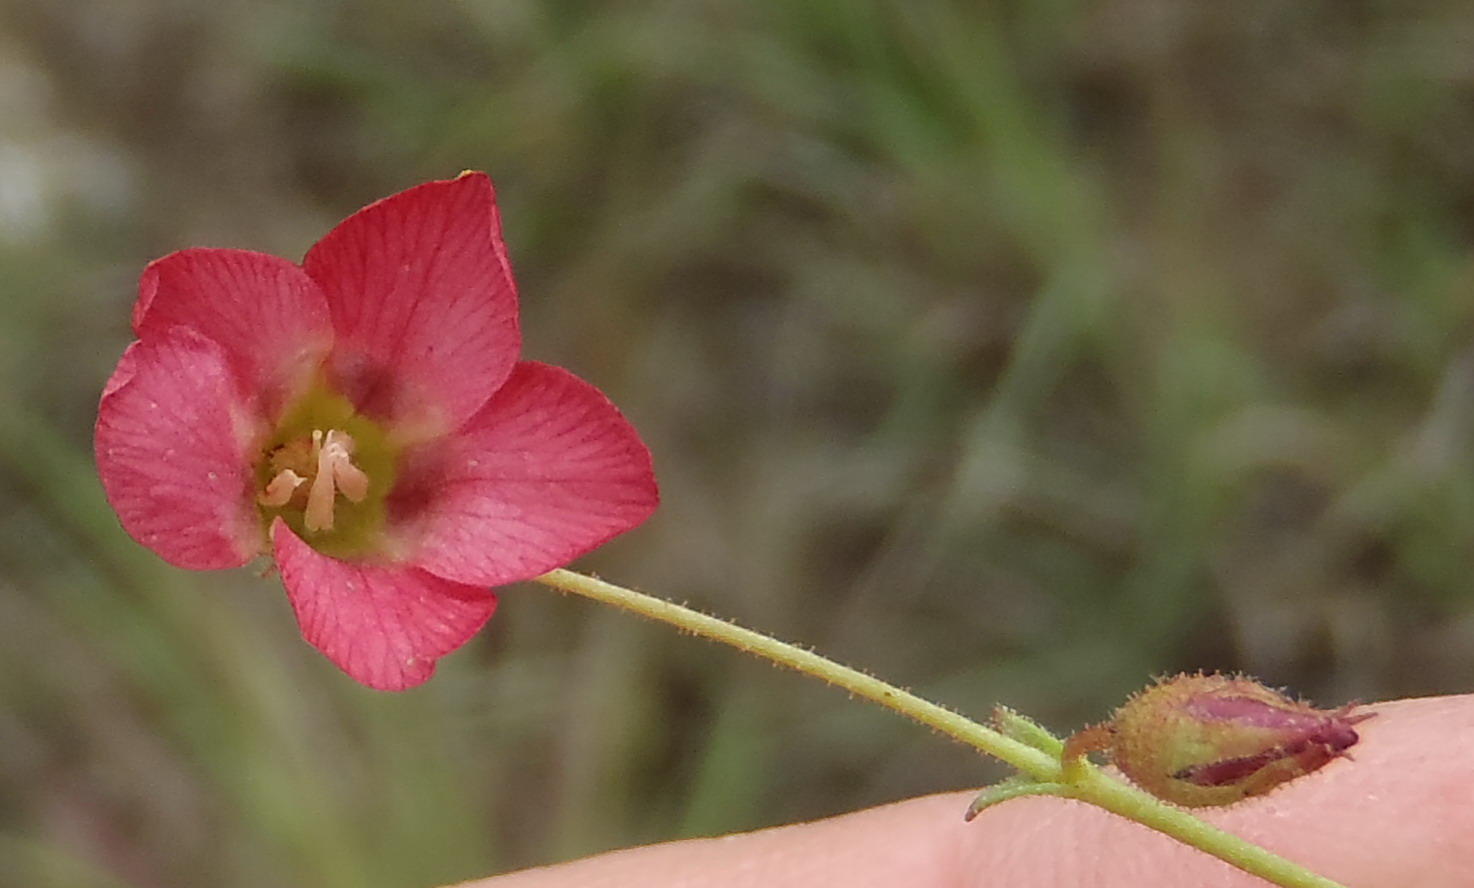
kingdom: Plantae
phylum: Tracheophyta
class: Magnoliopsida
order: Malvales
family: Malvaceae
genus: Hermannia
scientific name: Hermannia coccocarpa
